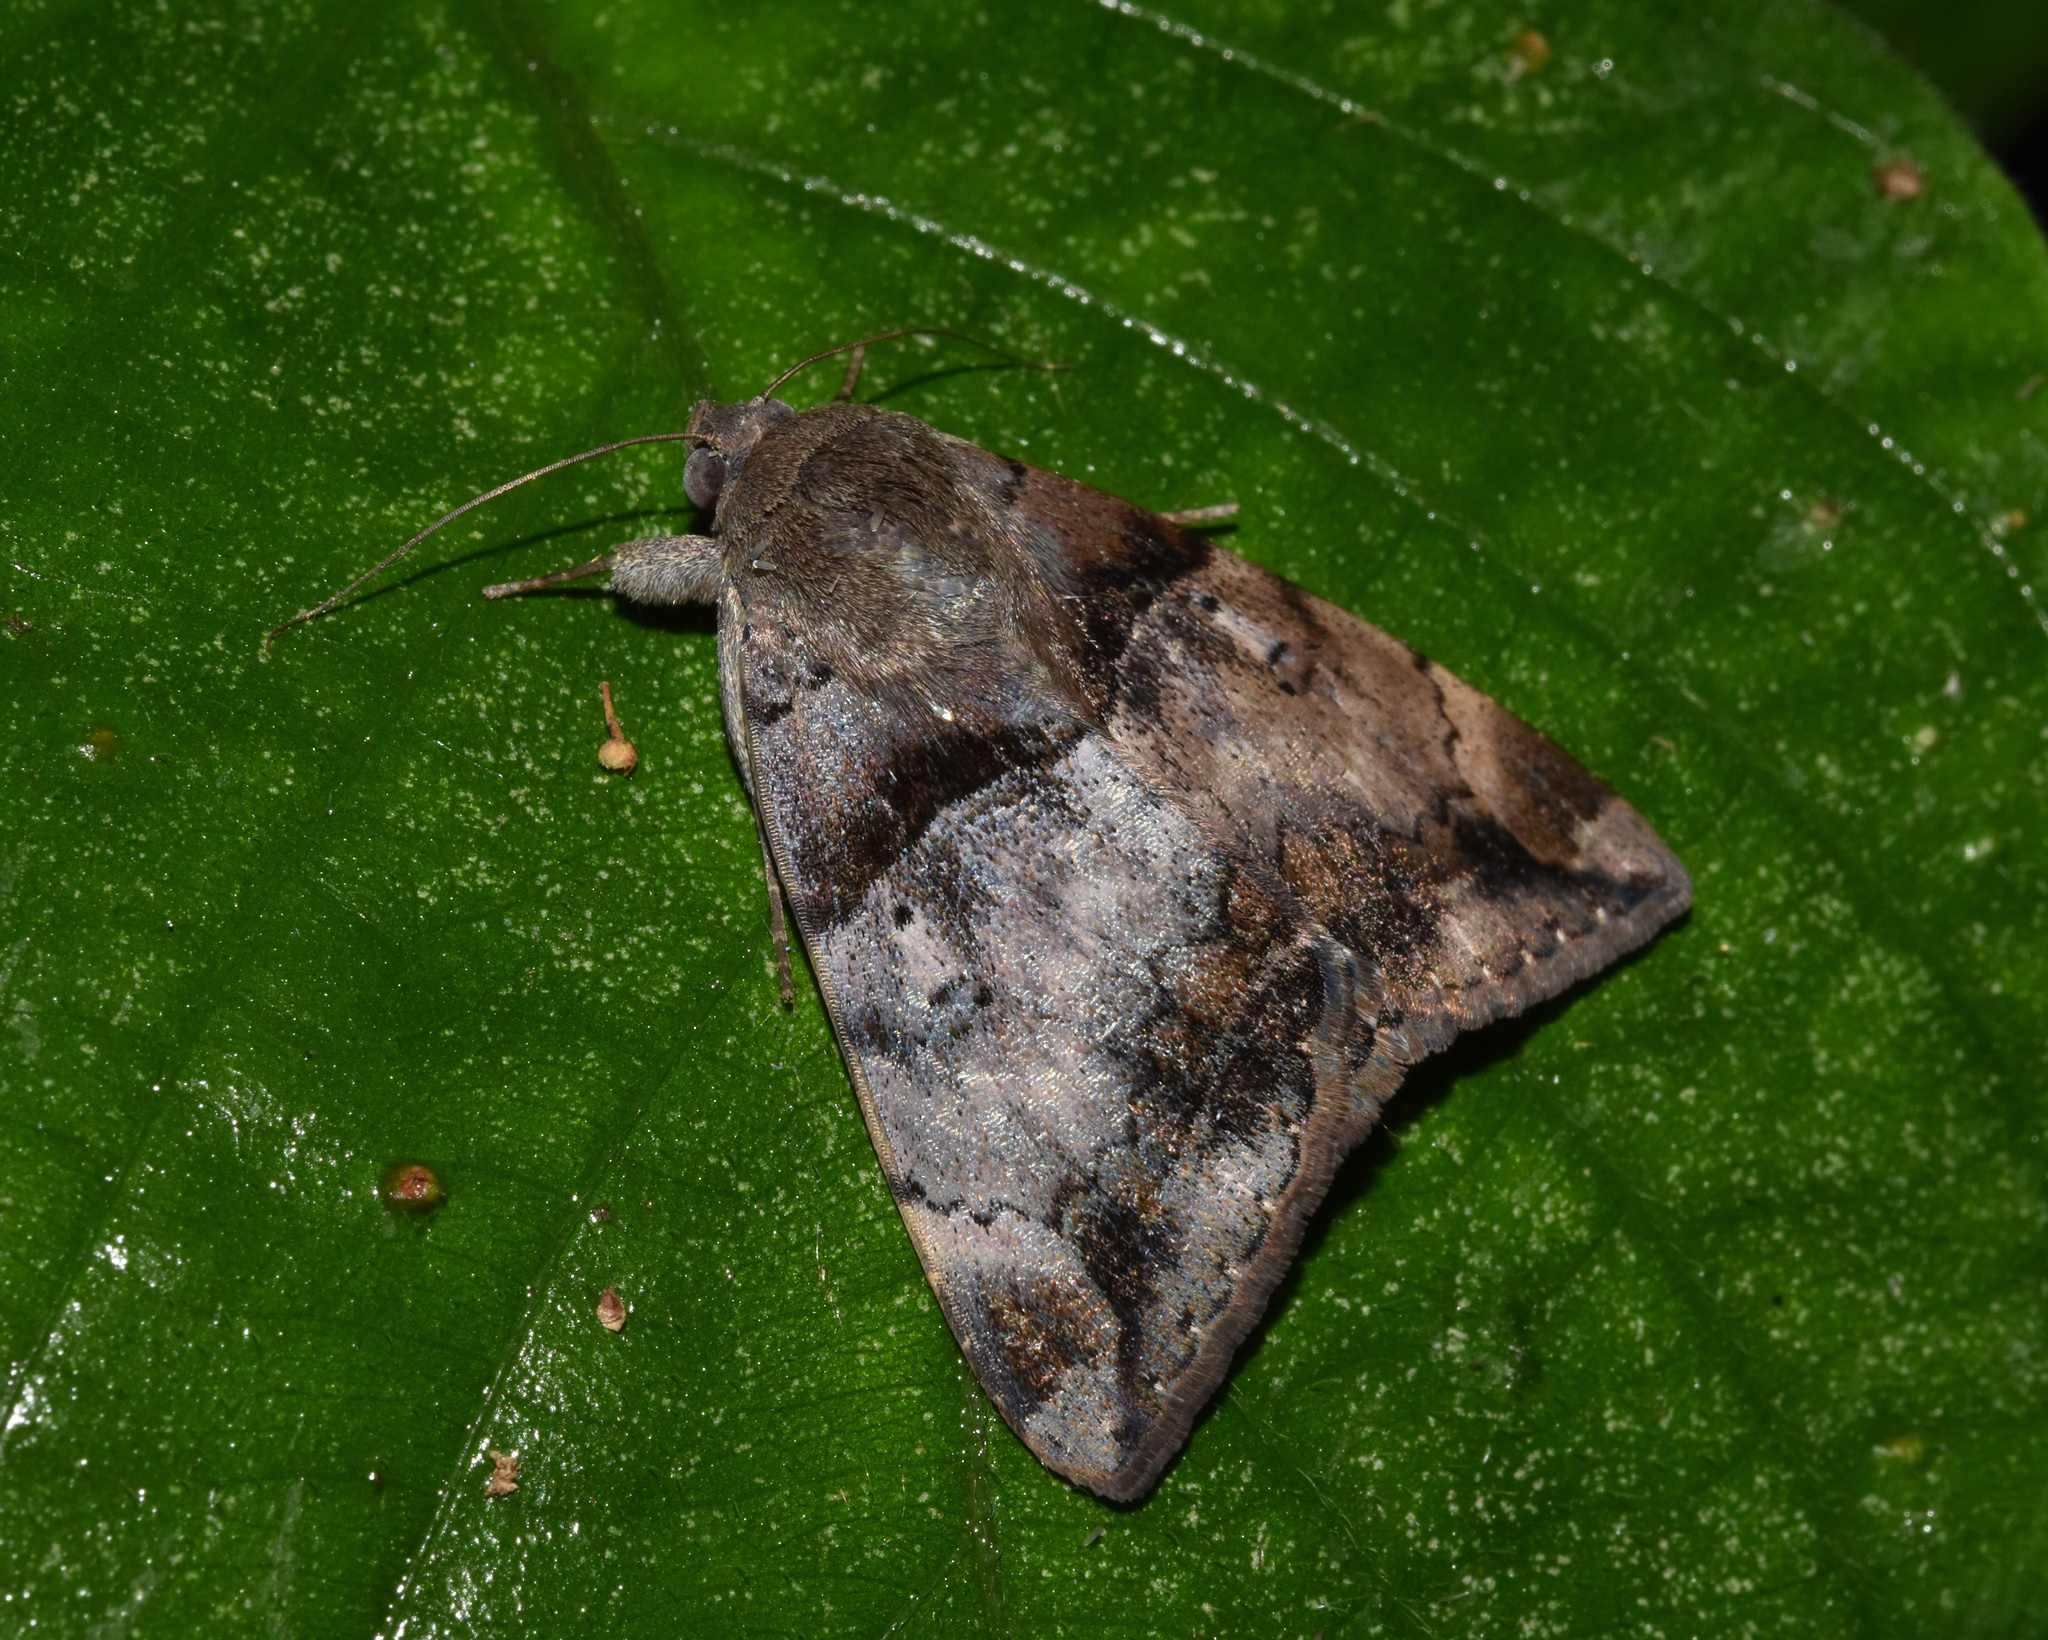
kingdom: Animalia
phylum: Arthropoda
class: Insecta
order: Lepidoptera
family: Erebidae
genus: Achaea
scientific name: Achaea lienardi
